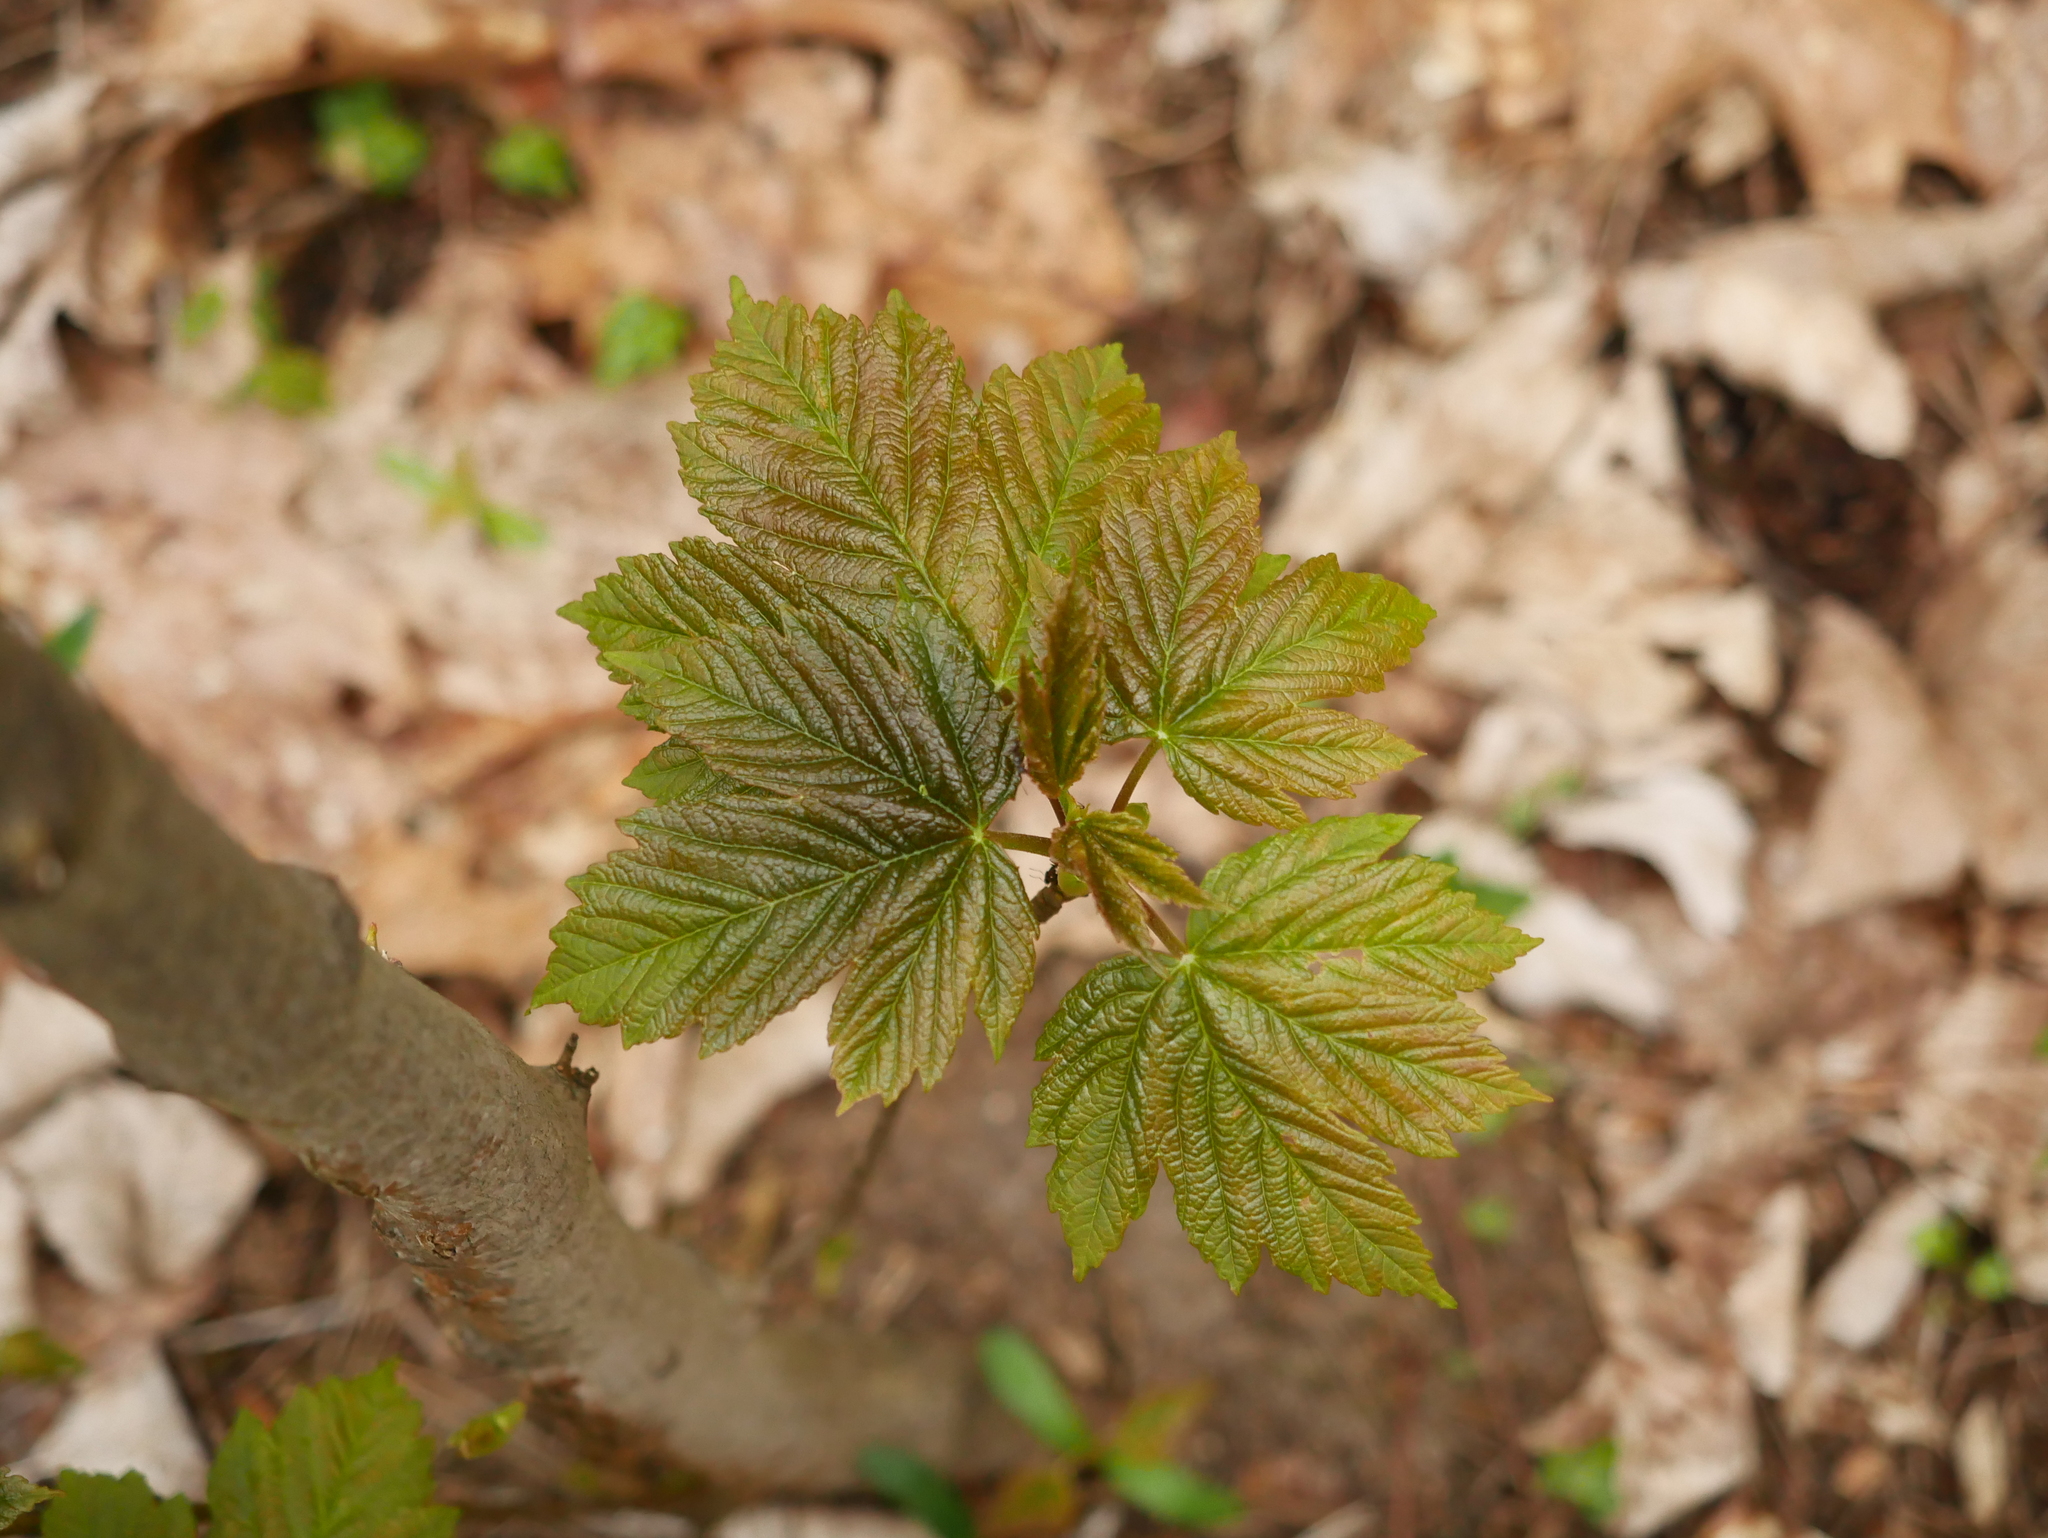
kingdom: Plantae
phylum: Tracheophyta
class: Magnoliopsida
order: Sapindales
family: Sapindaceae
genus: Acer
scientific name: Acer pseudoplatanus
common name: Sycamore
